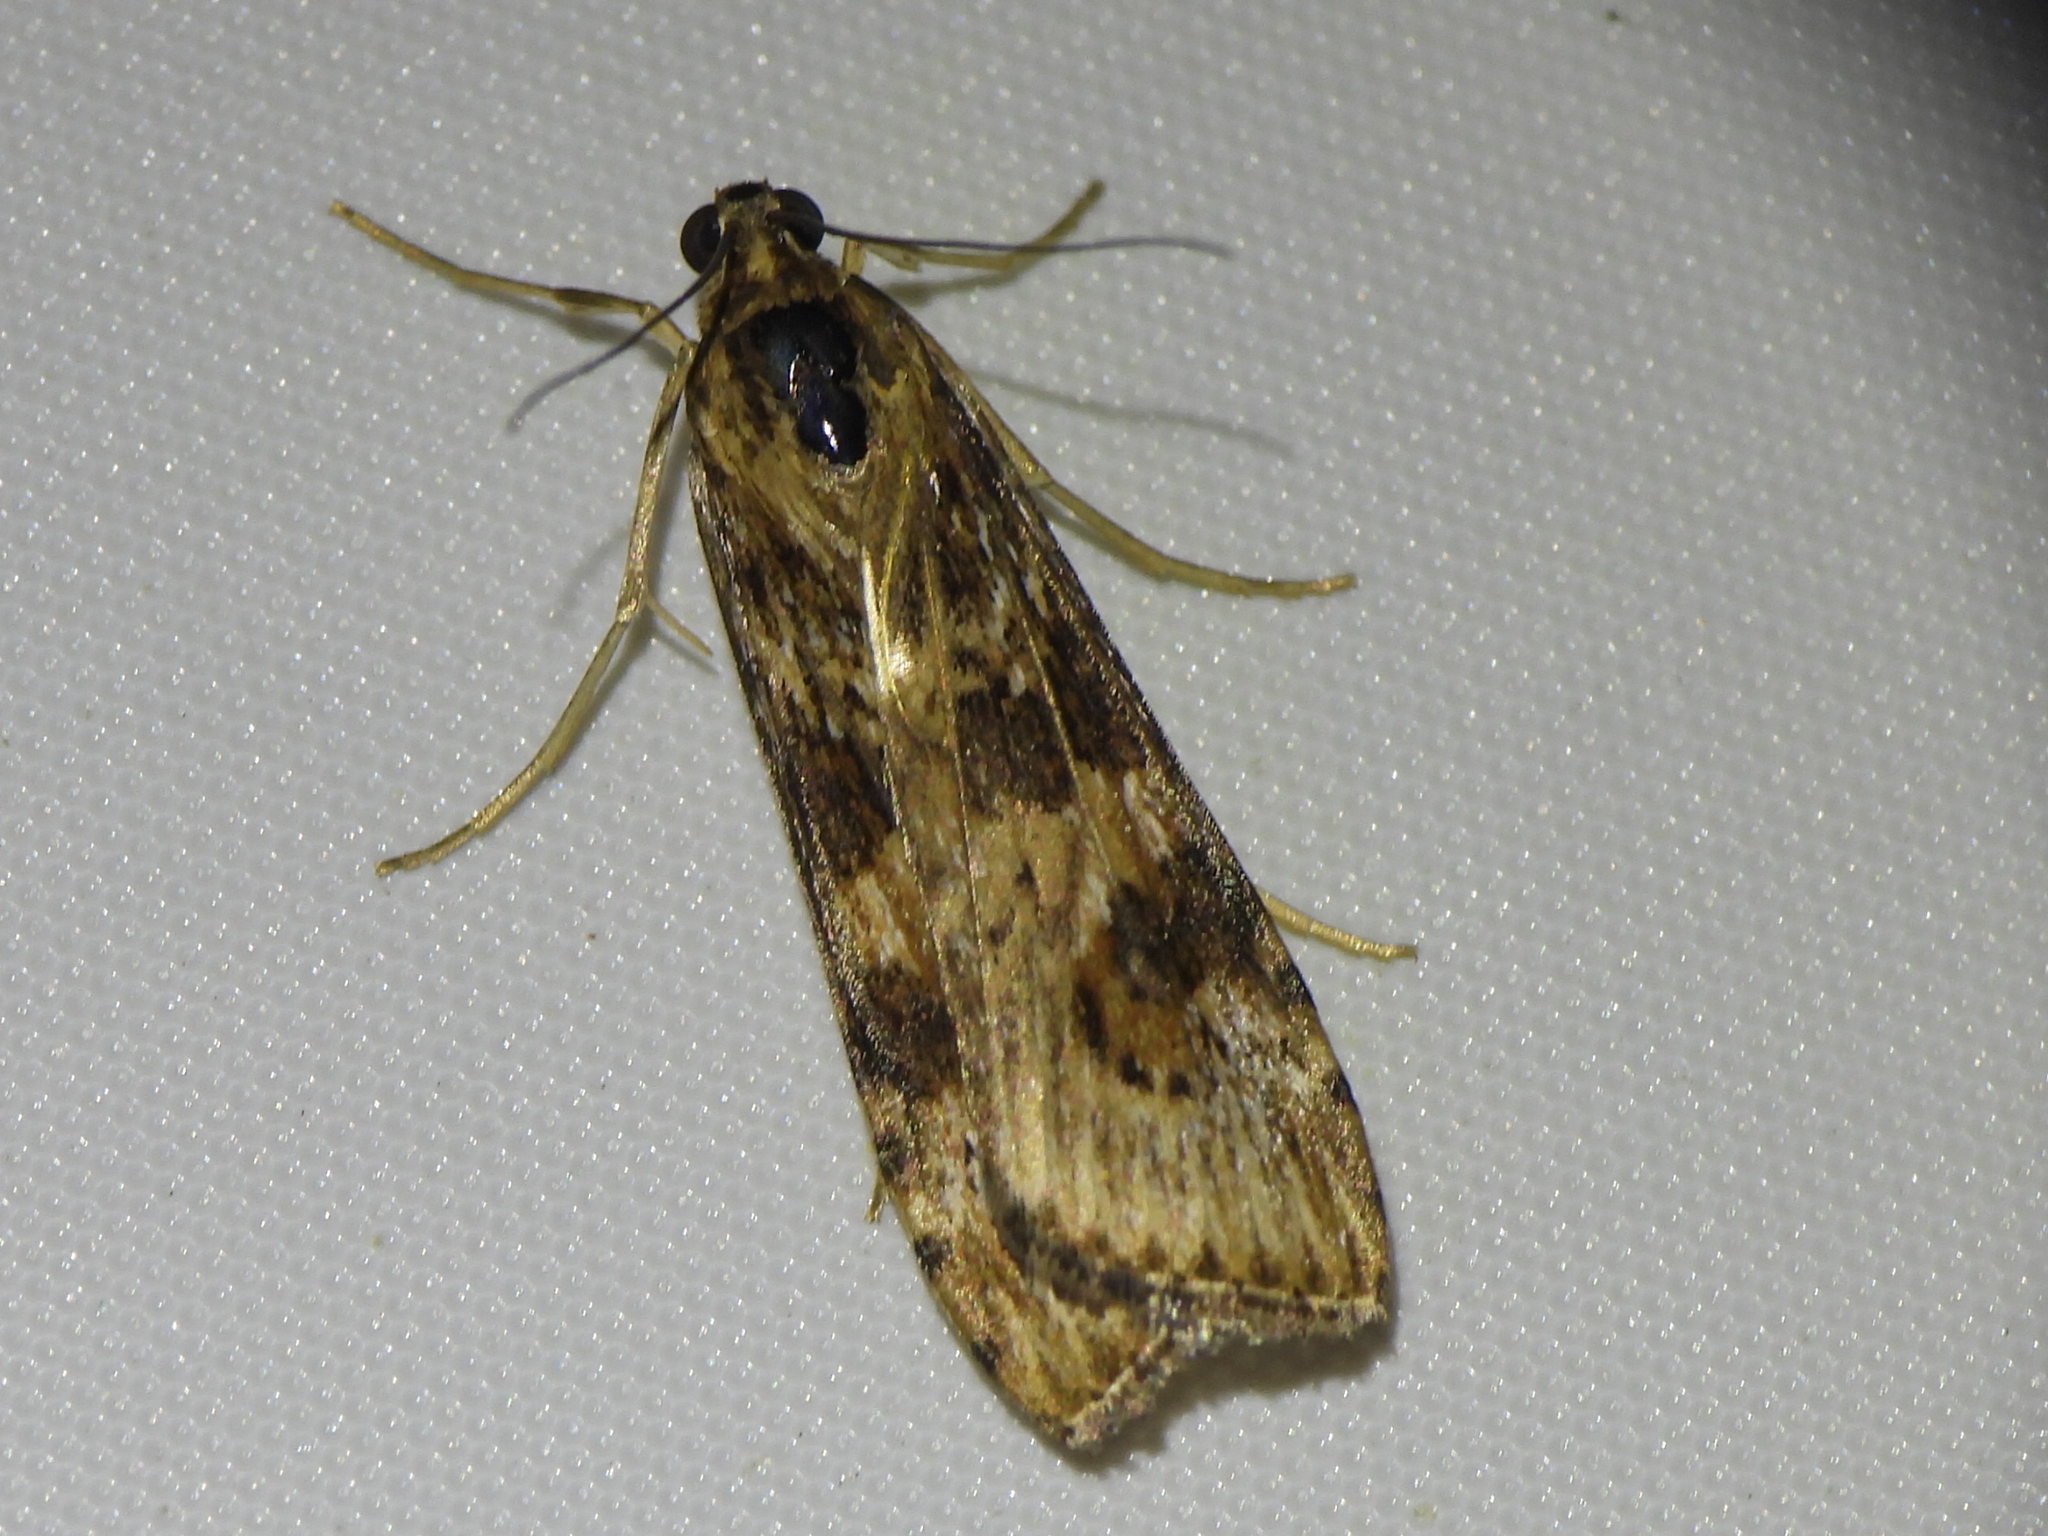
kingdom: Animalia
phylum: Arthropoda
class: Insecta
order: Lepidoptera
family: Crambidae
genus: Nomophila
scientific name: Nomophila nearctica
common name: American rush veneer
